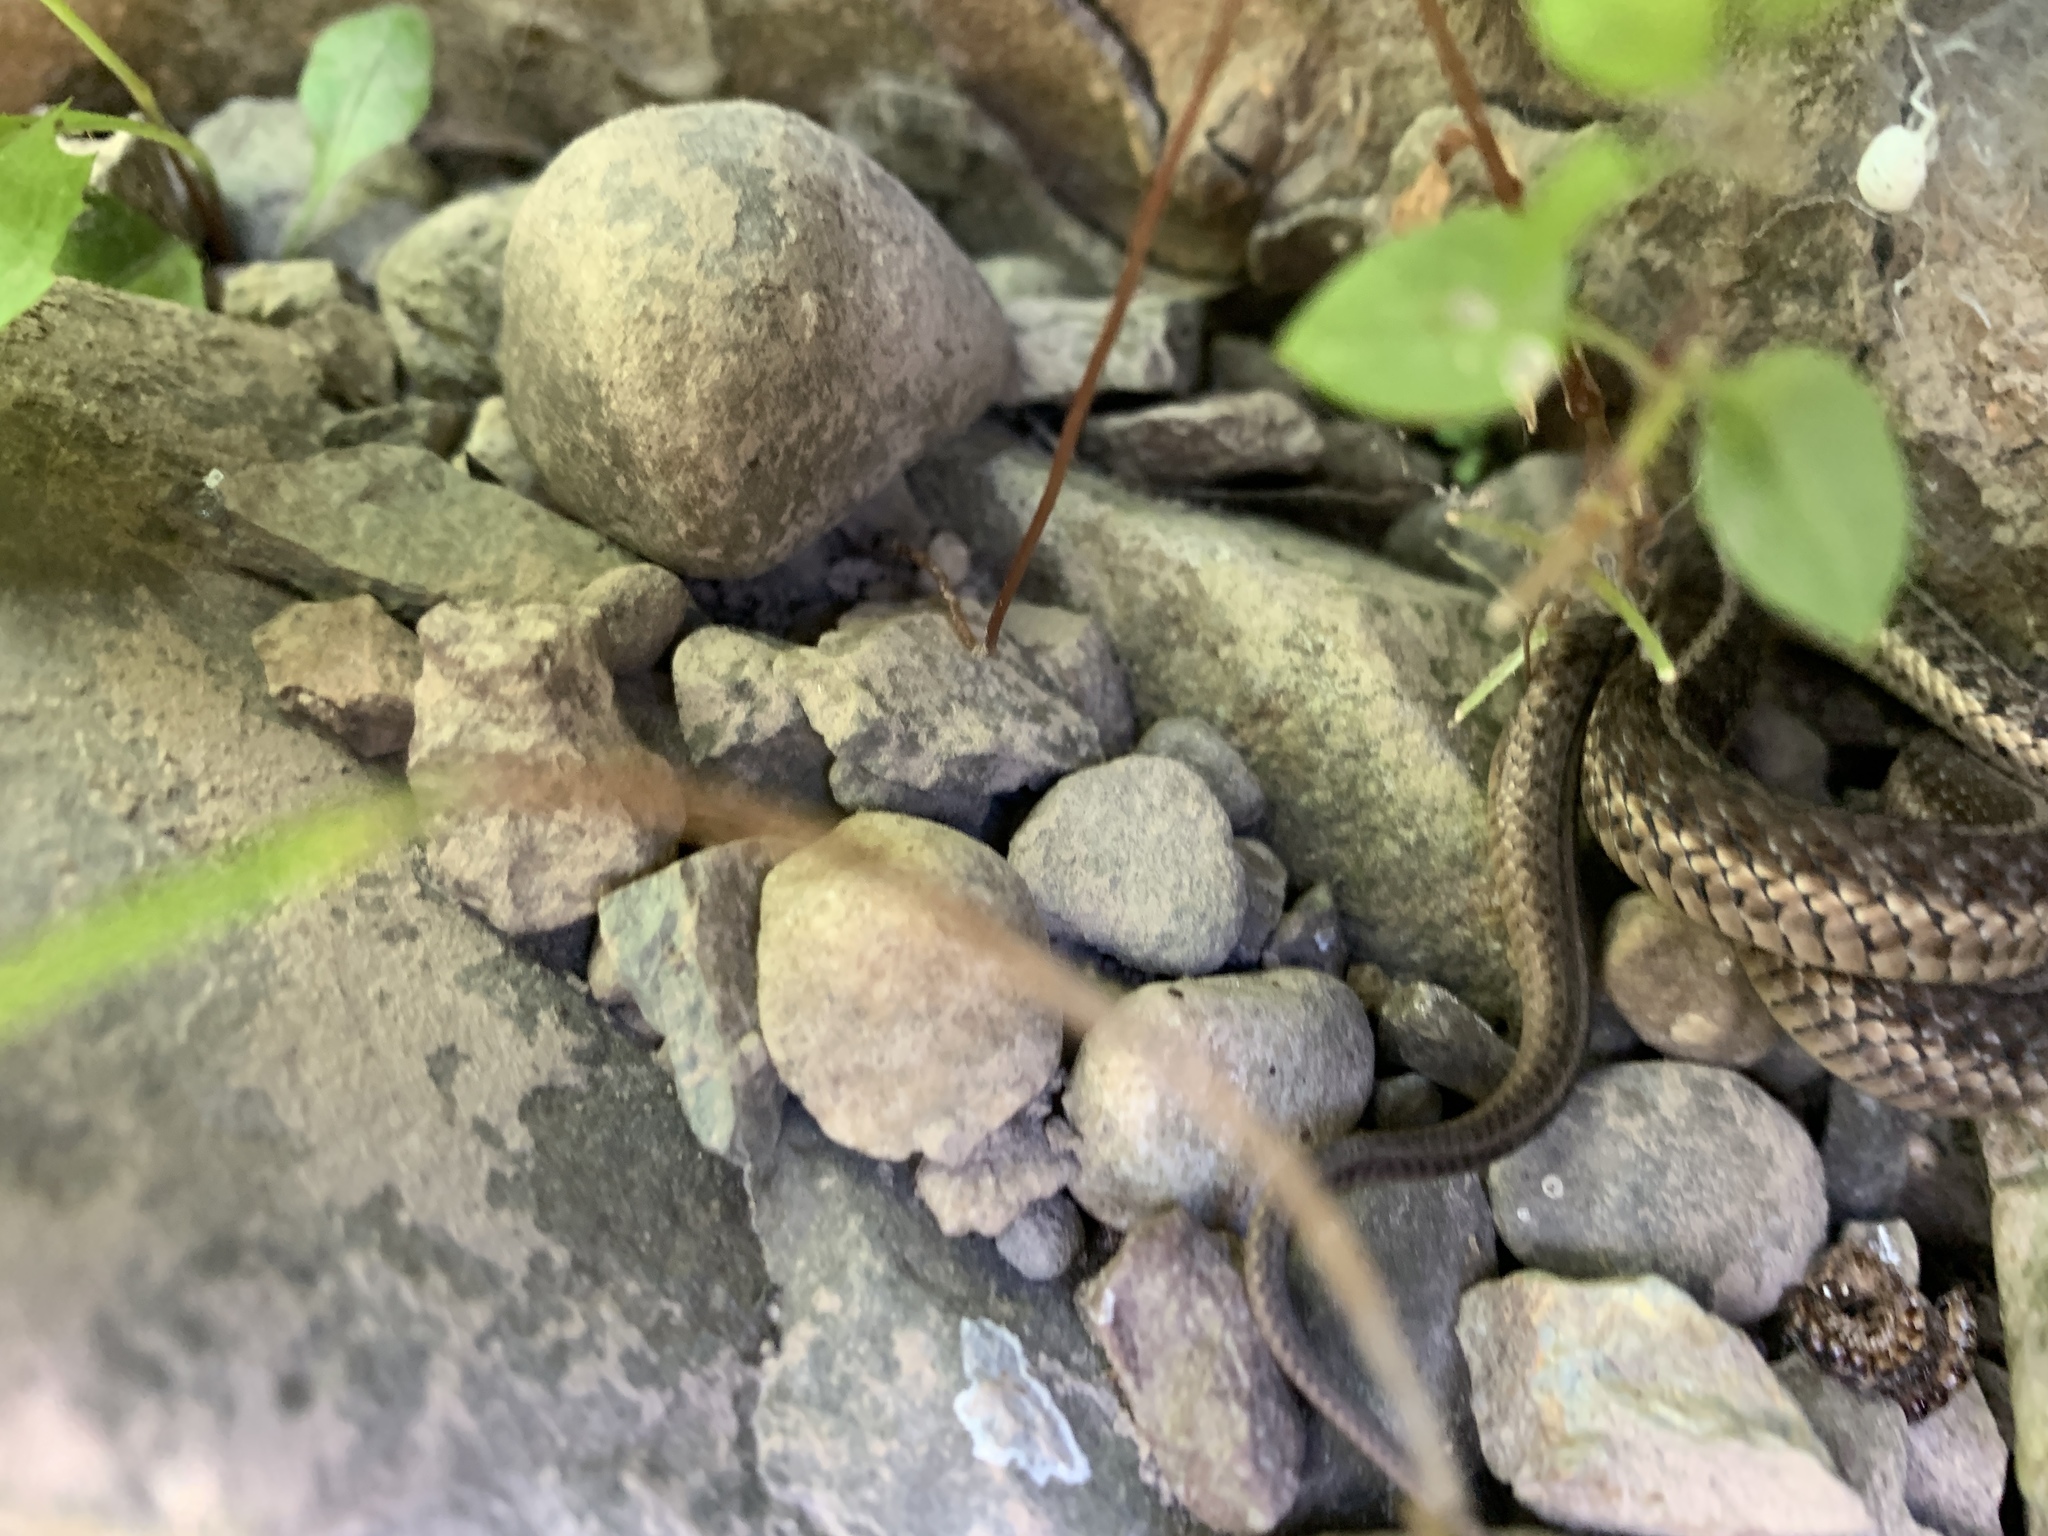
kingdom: Animalia
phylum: Chordata
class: Squamata
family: Colubridae
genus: Thamnophis
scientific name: Thamnophis sirtalis
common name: Common garter snake
